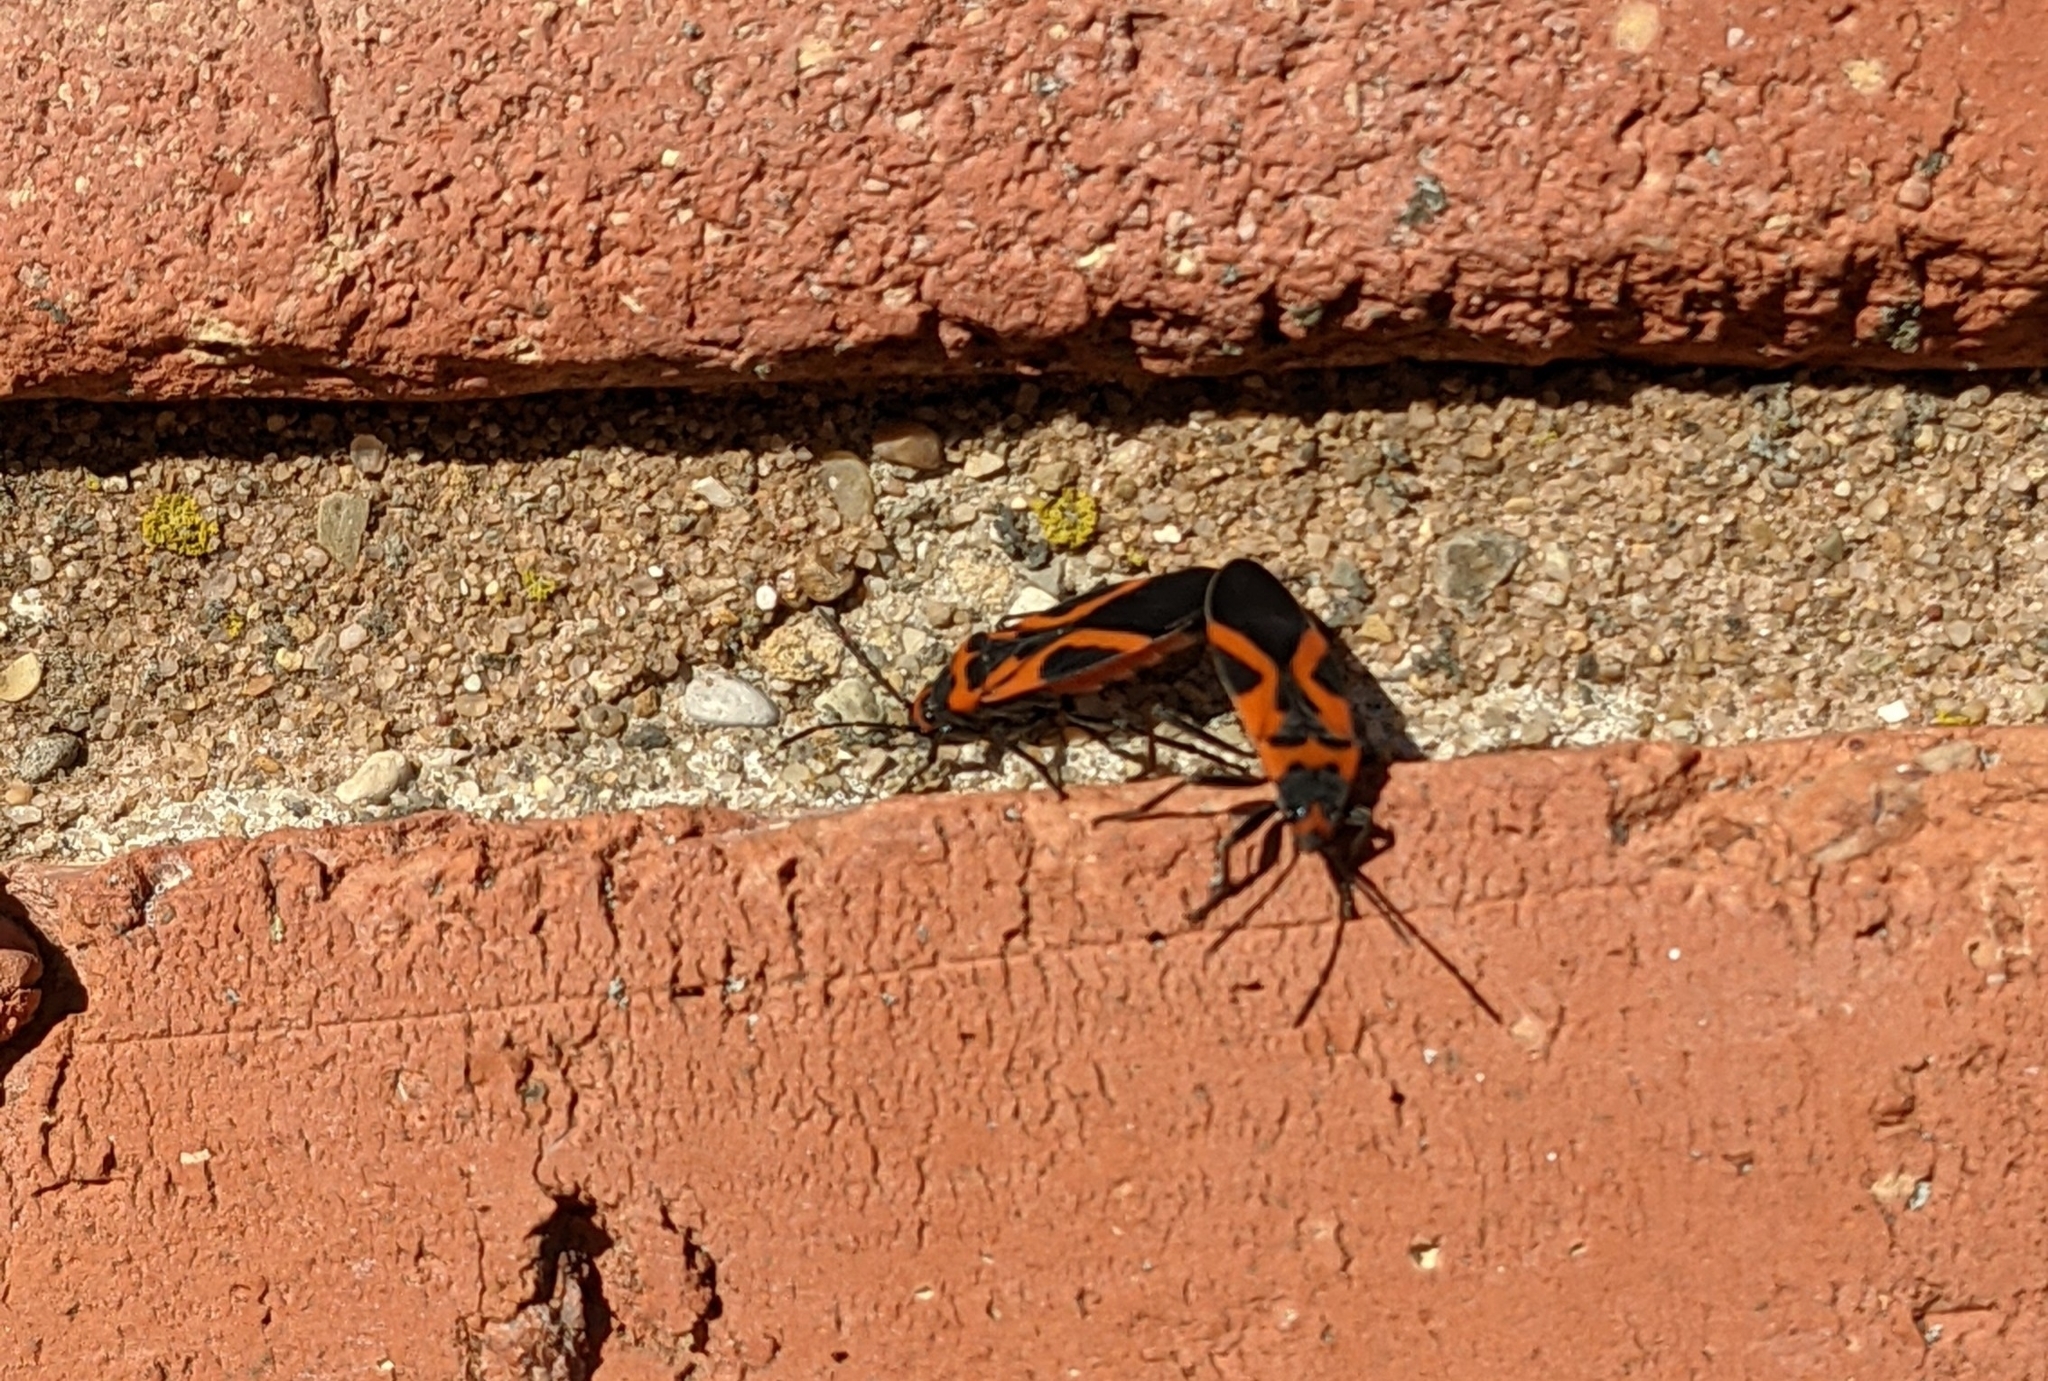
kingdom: Animalia
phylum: Arthropoda
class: Insecta
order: Hemiptera
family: Lygaeidae
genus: Lygaeus
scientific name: Lygaeus turcicus
